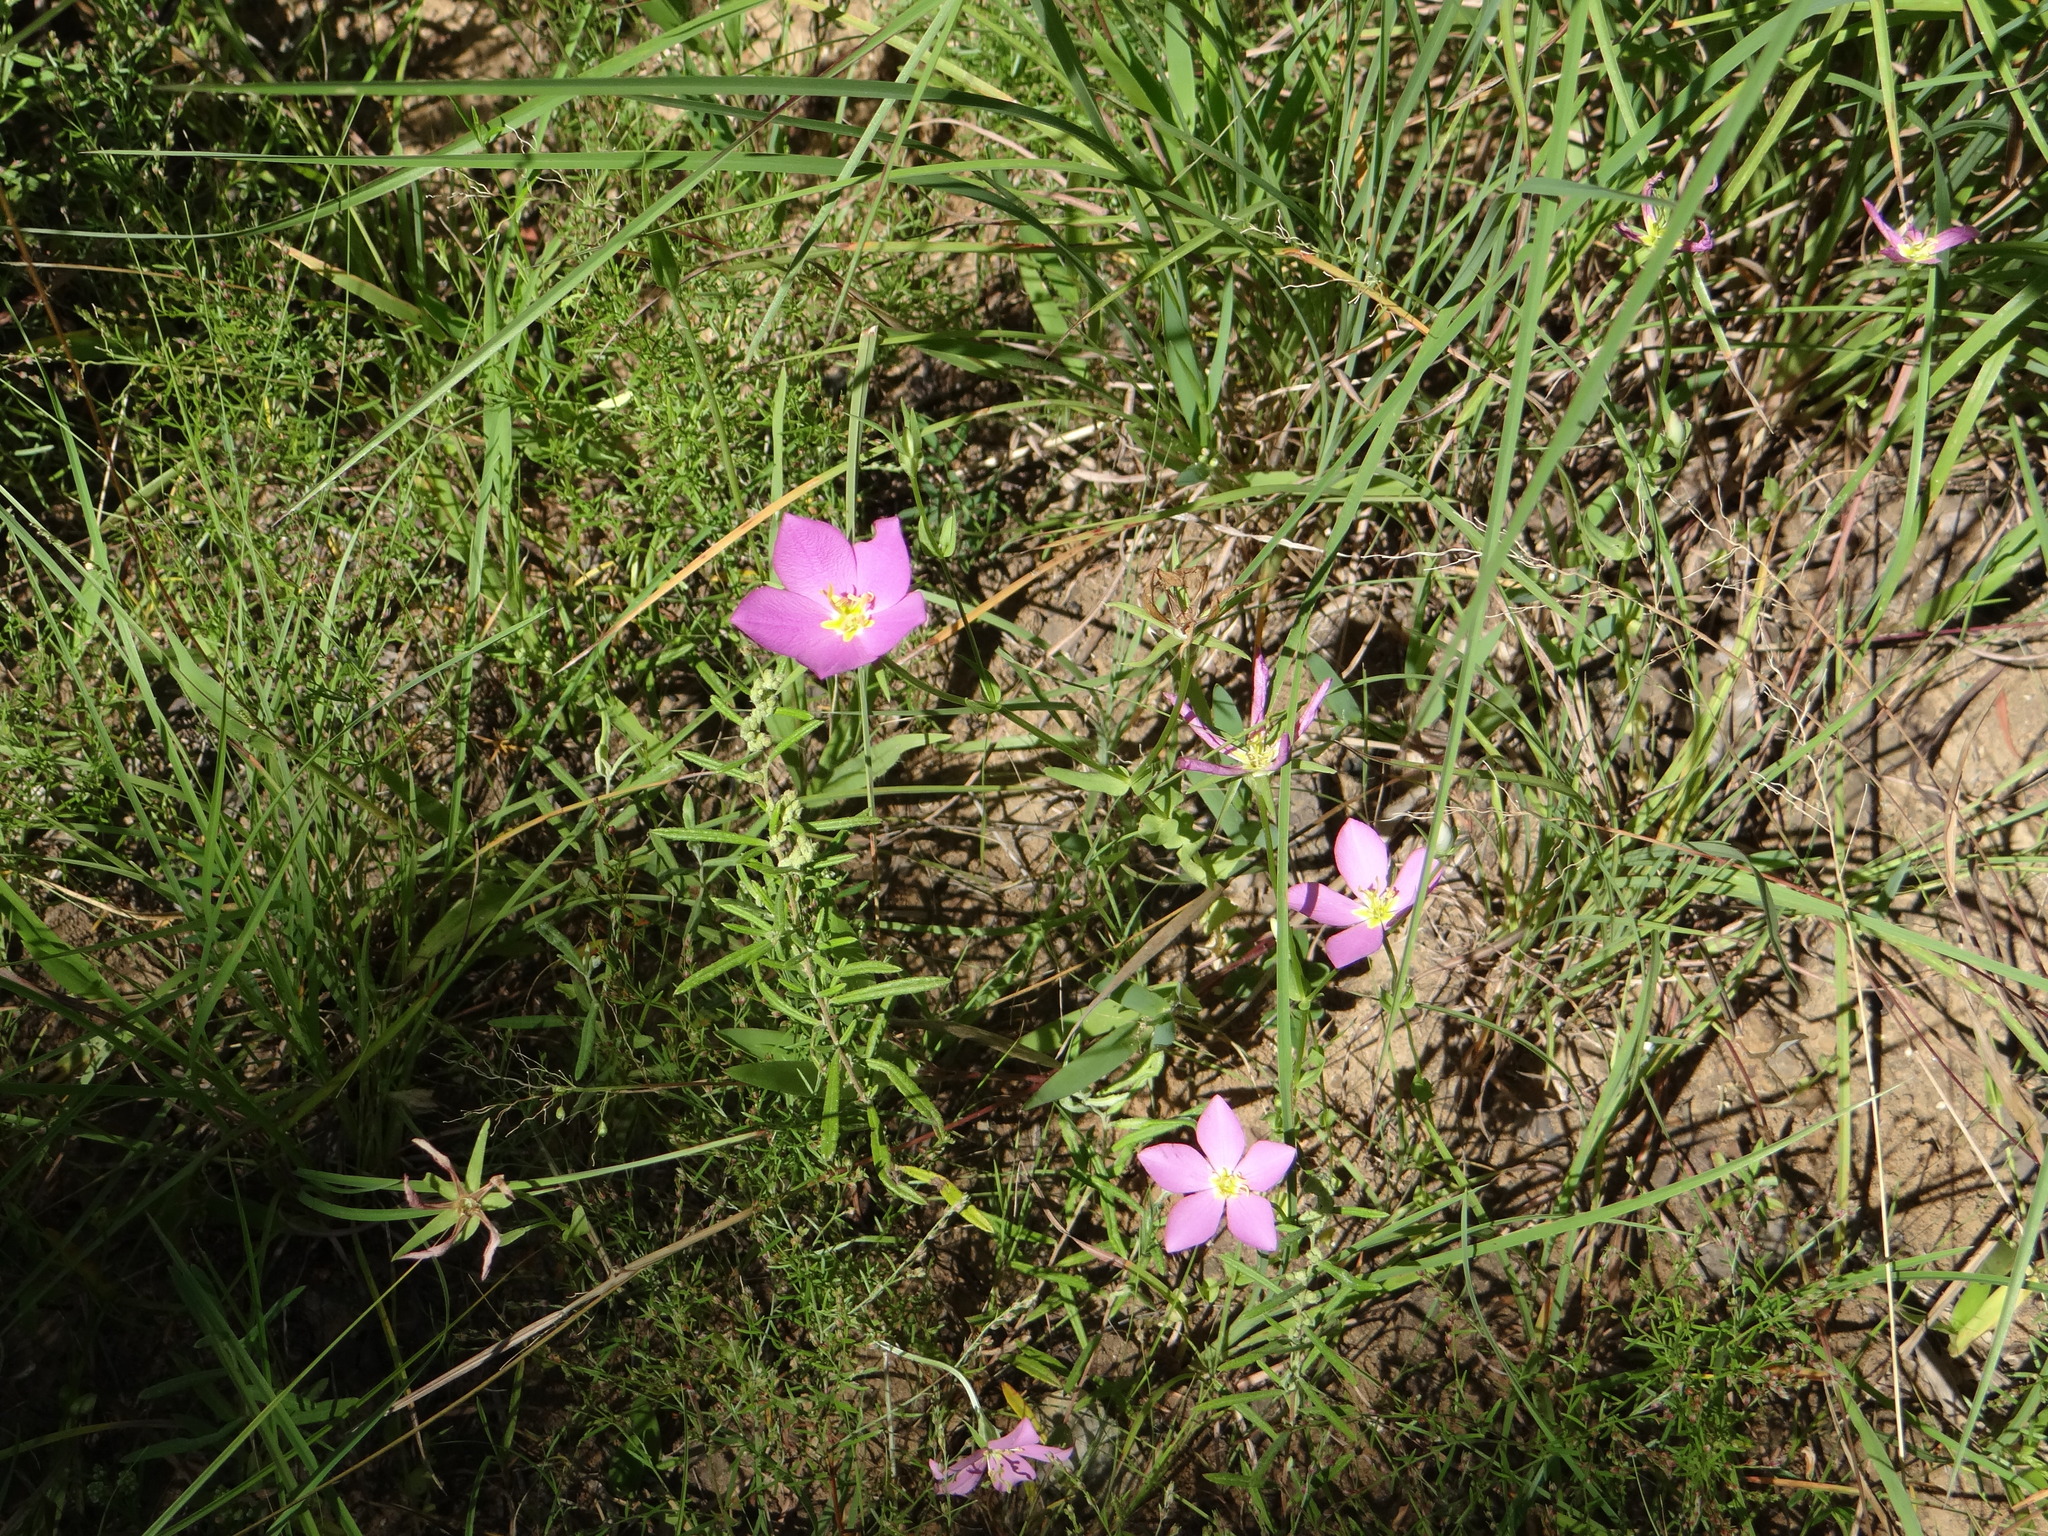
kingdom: Plantae
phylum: Tracheophyta
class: Magnoliopsida
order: Gentianales
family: Gentianaceae
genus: Sabatia
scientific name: Sabatia campestris
